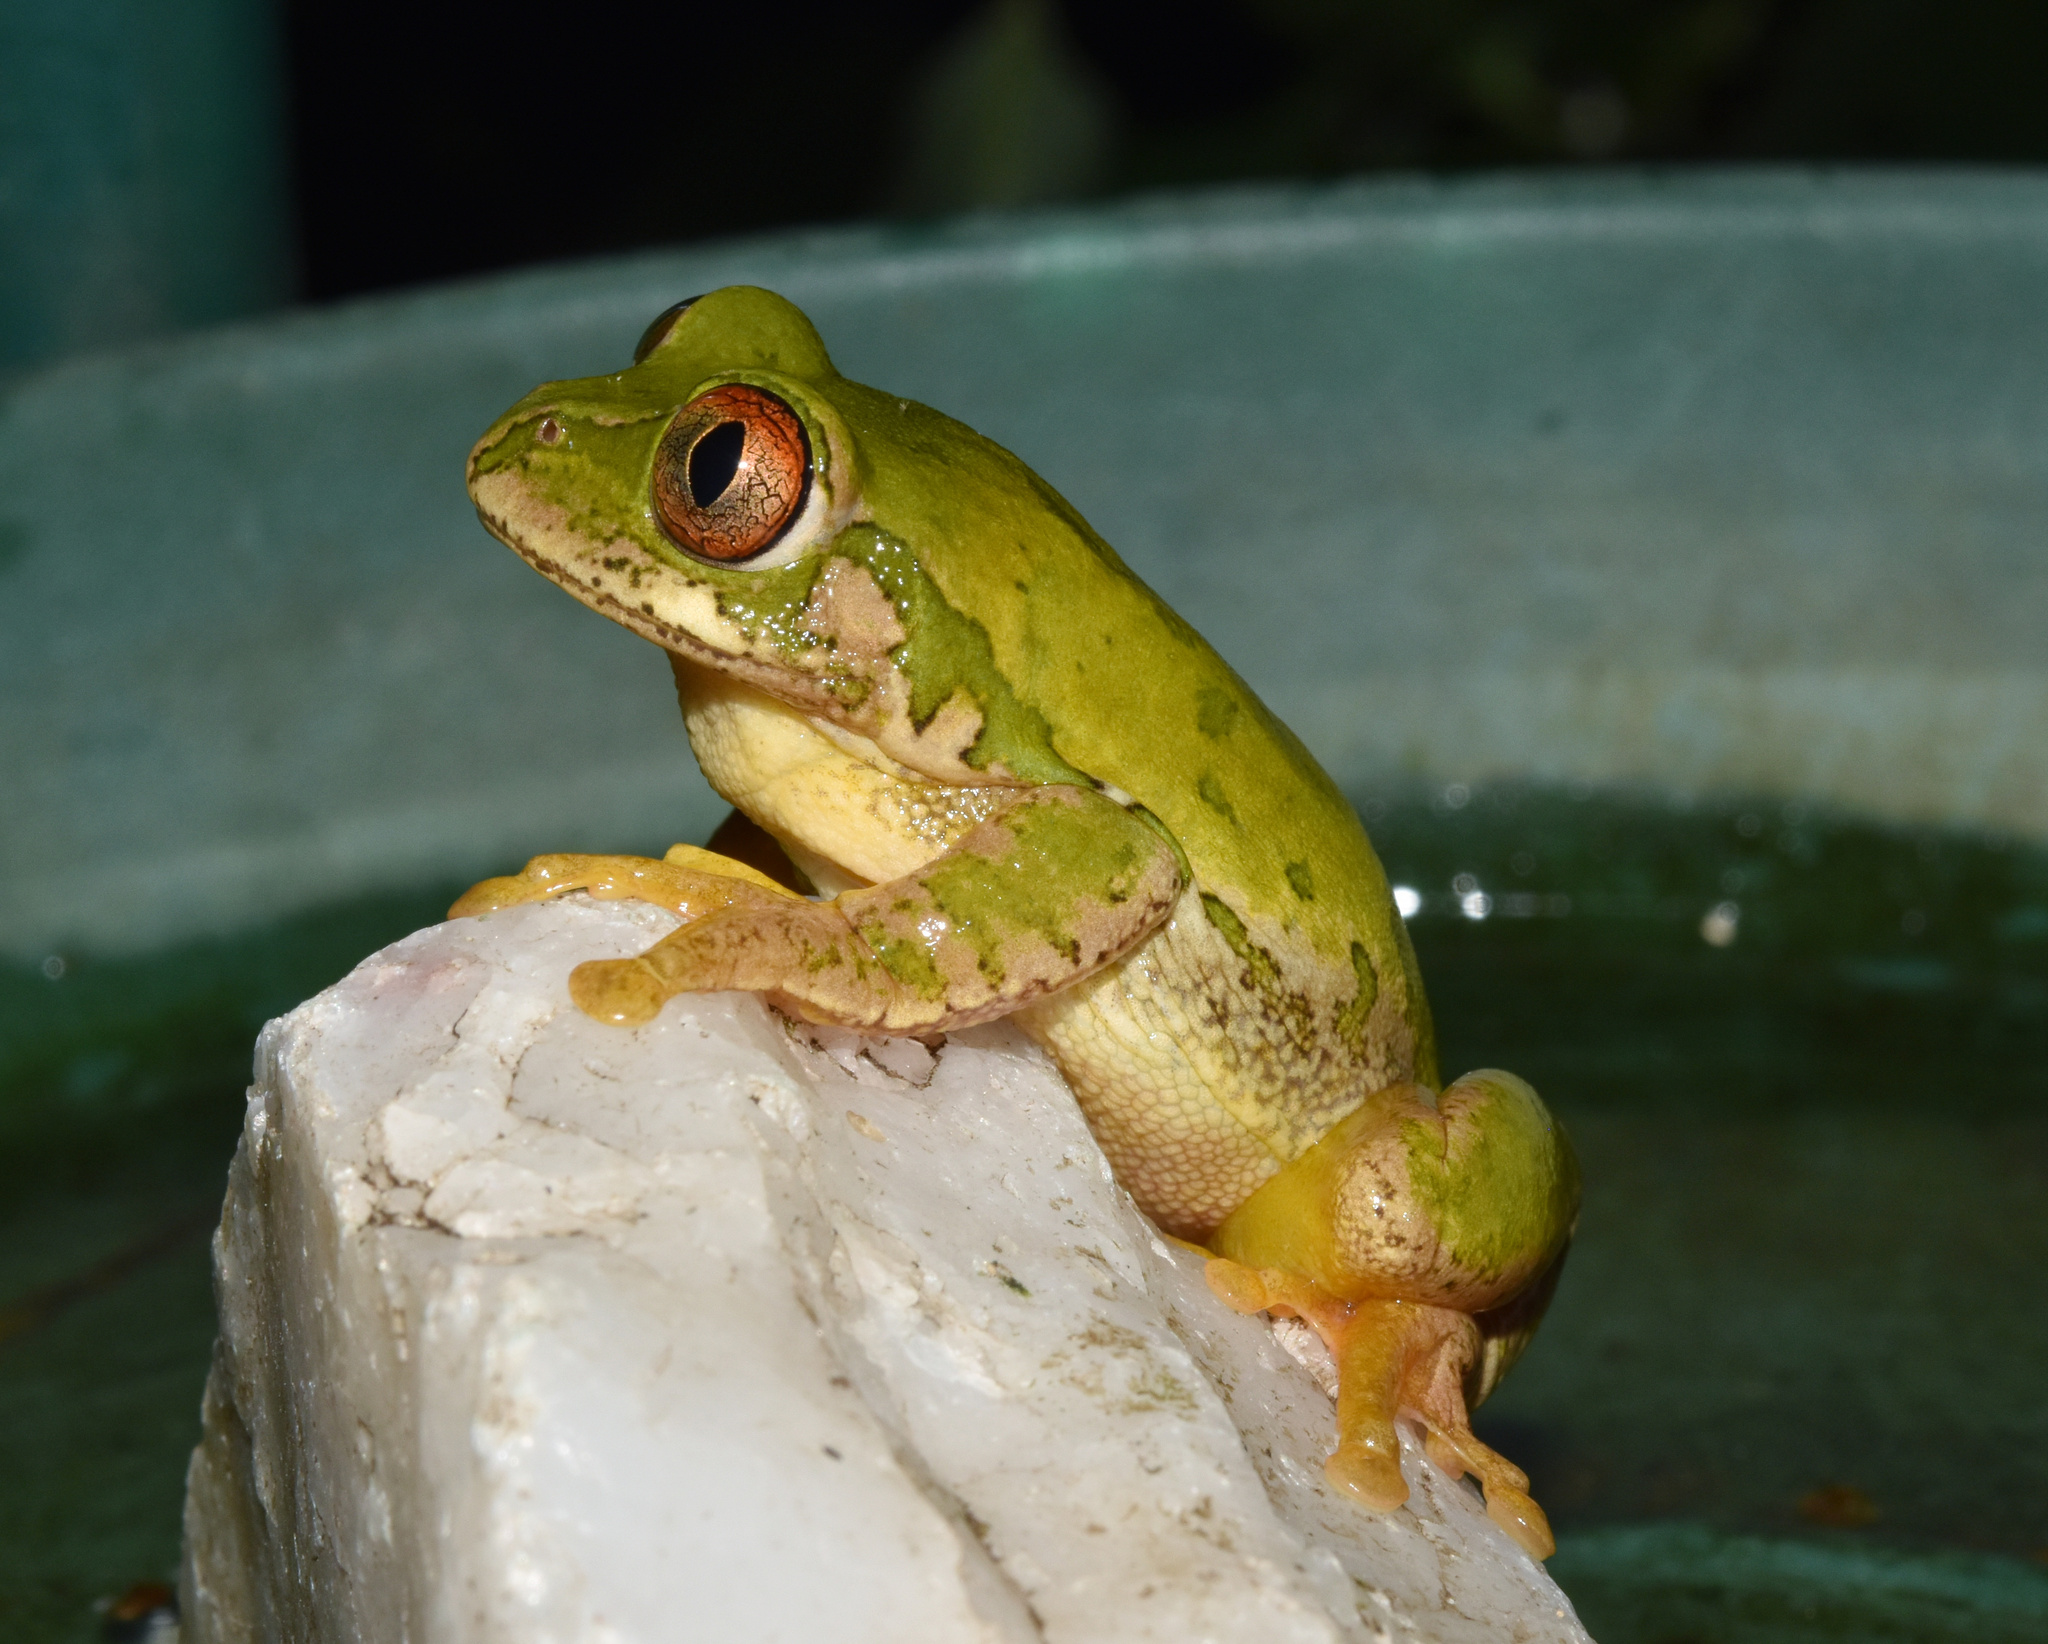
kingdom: Animalia
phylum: Chordata
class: Amphibia
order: Anura
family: Arthroleptidae
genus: Leptopelis
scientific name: Leptopelis natalensis
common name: Natal tree frog
